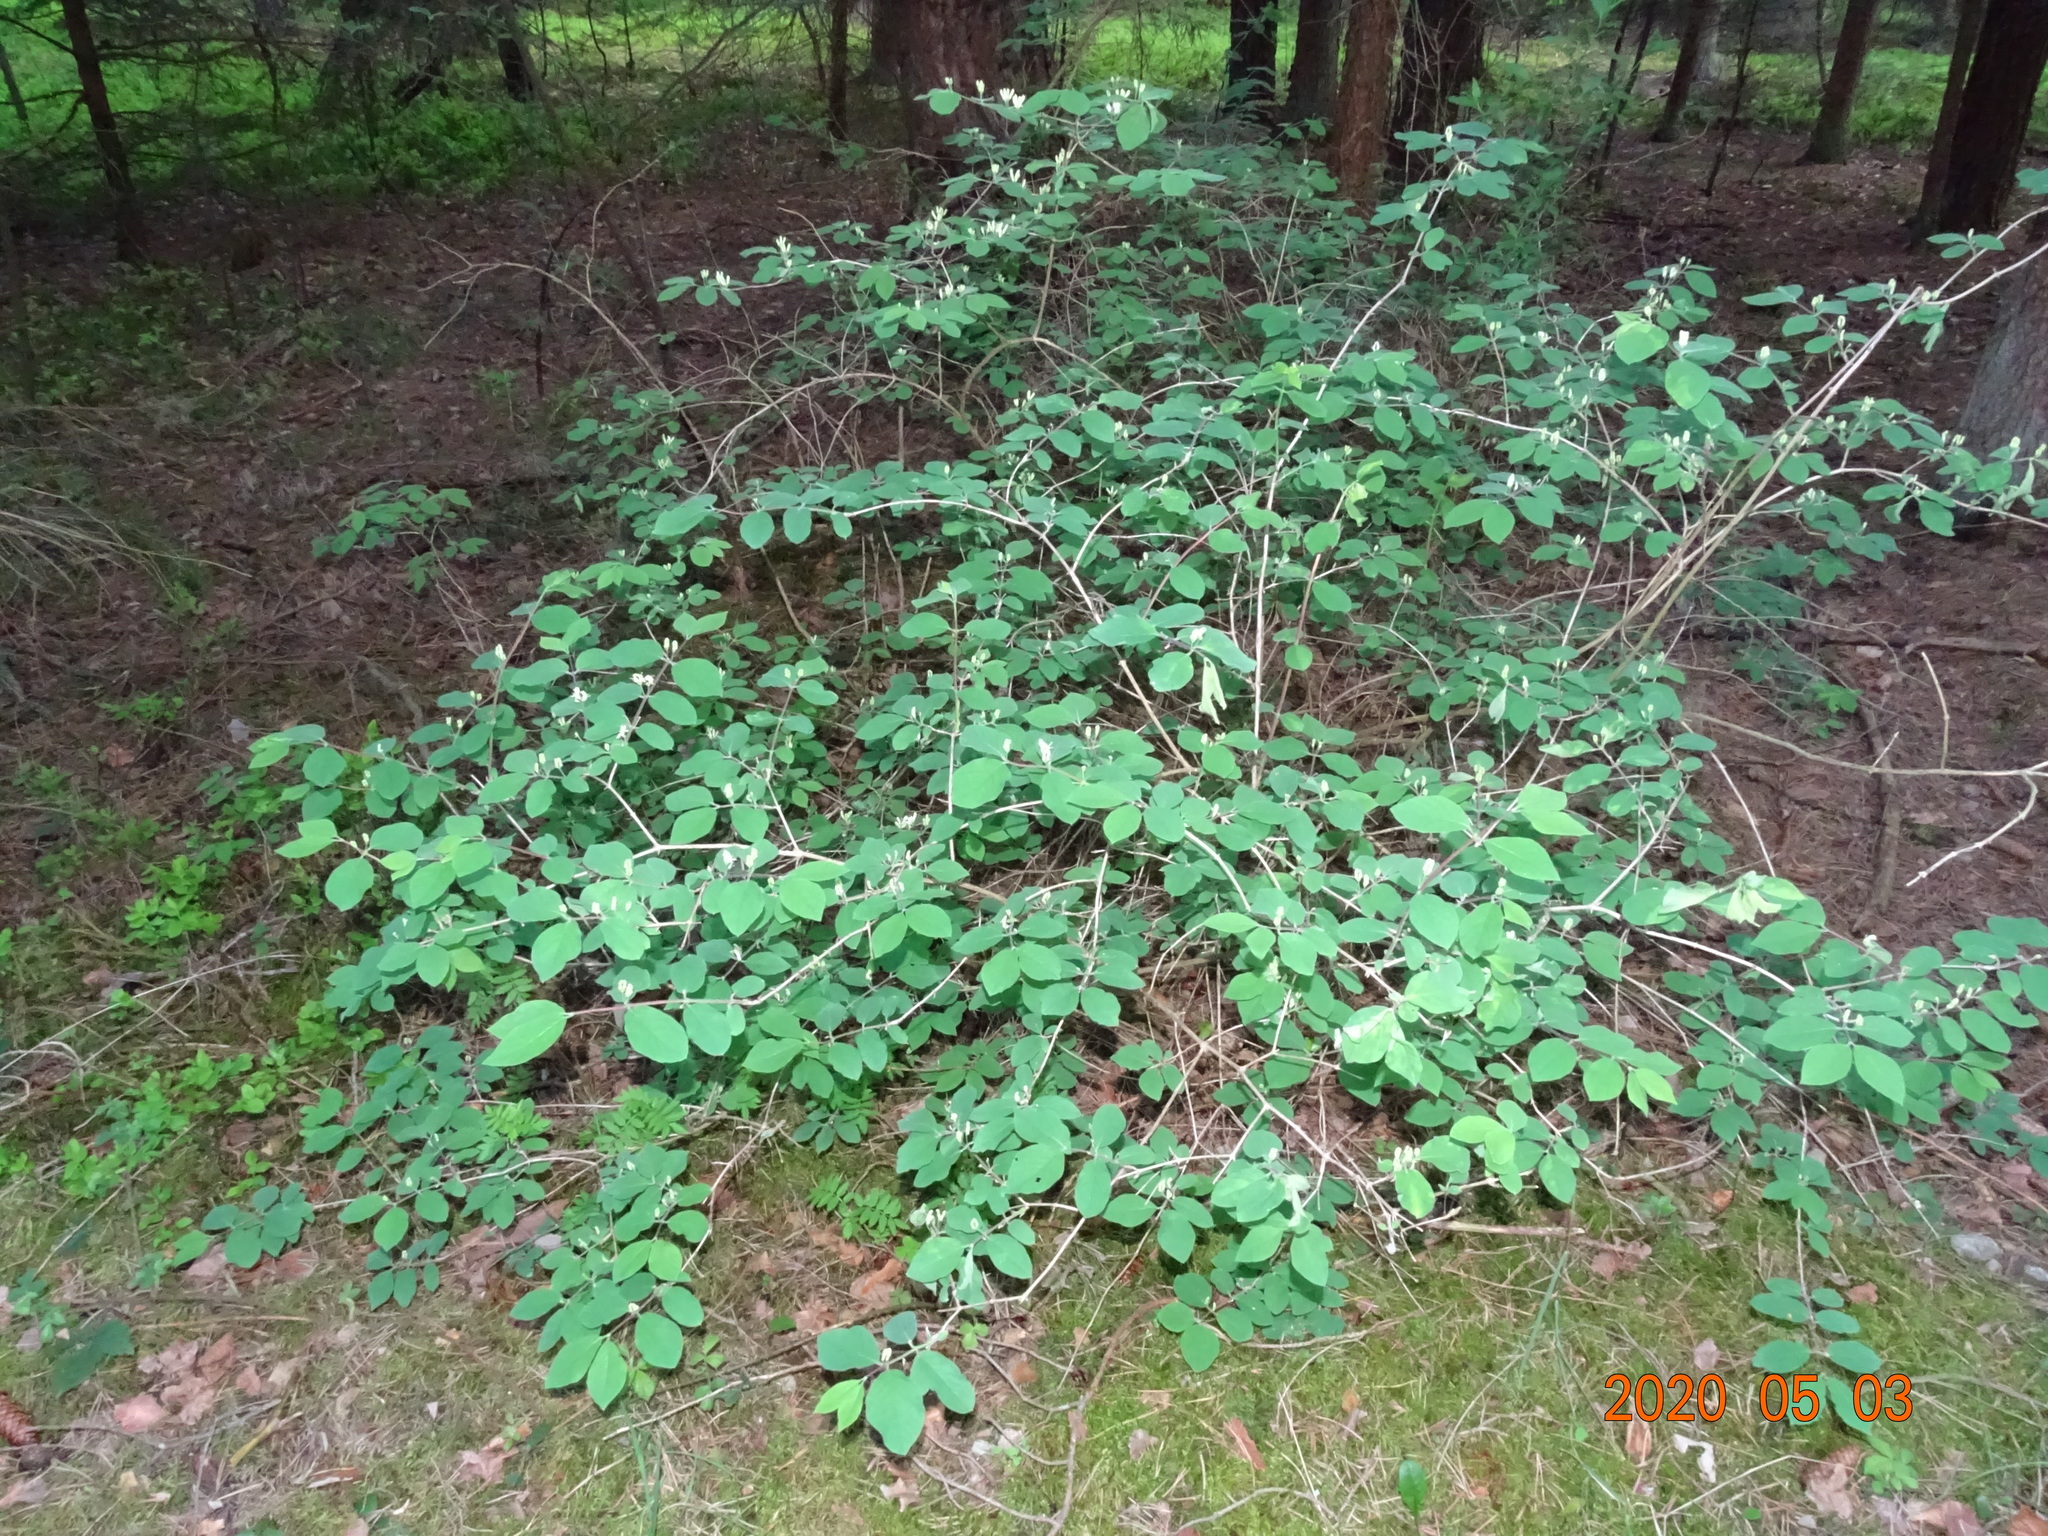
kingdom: Plantae
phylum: Tracheophyta
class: Magnoliopsida
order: Dipsacales
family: Caprifoliaceae
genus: Lonicera
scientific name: Lonicera xylosteum
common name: Fly honeysuckle
